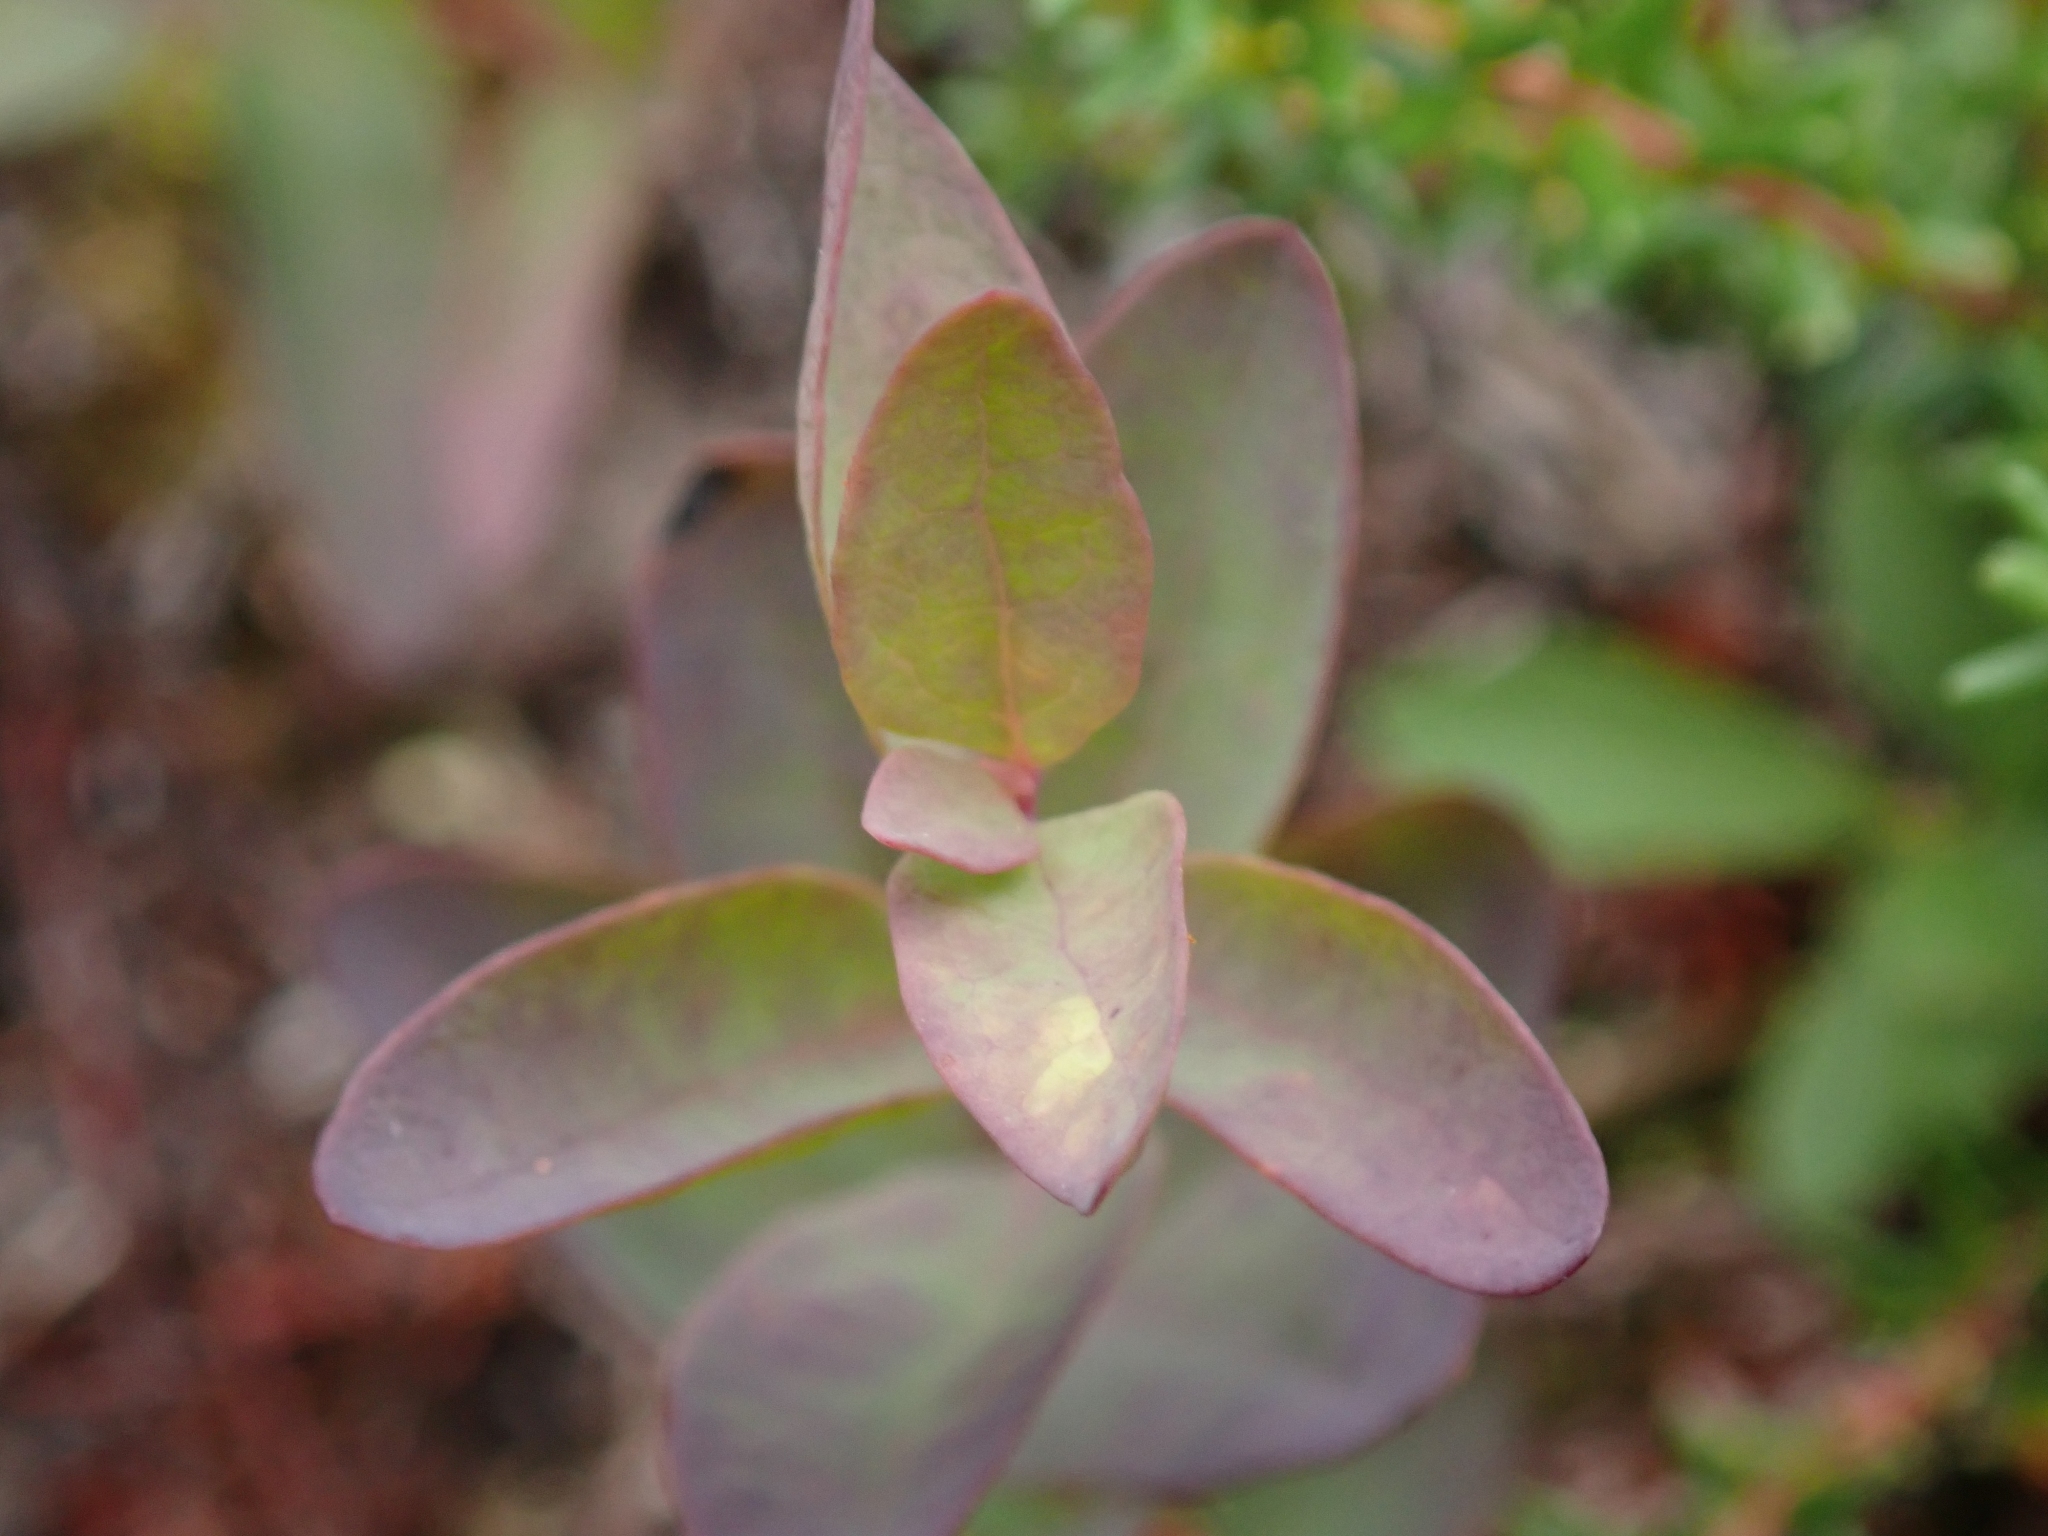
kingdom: Plantae
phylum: Tracheophyta
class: Magnoliopsida
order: Santalales
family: Comandraceae
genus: Geocaulon
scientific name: Geocaulon lividum
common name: Earthberry
